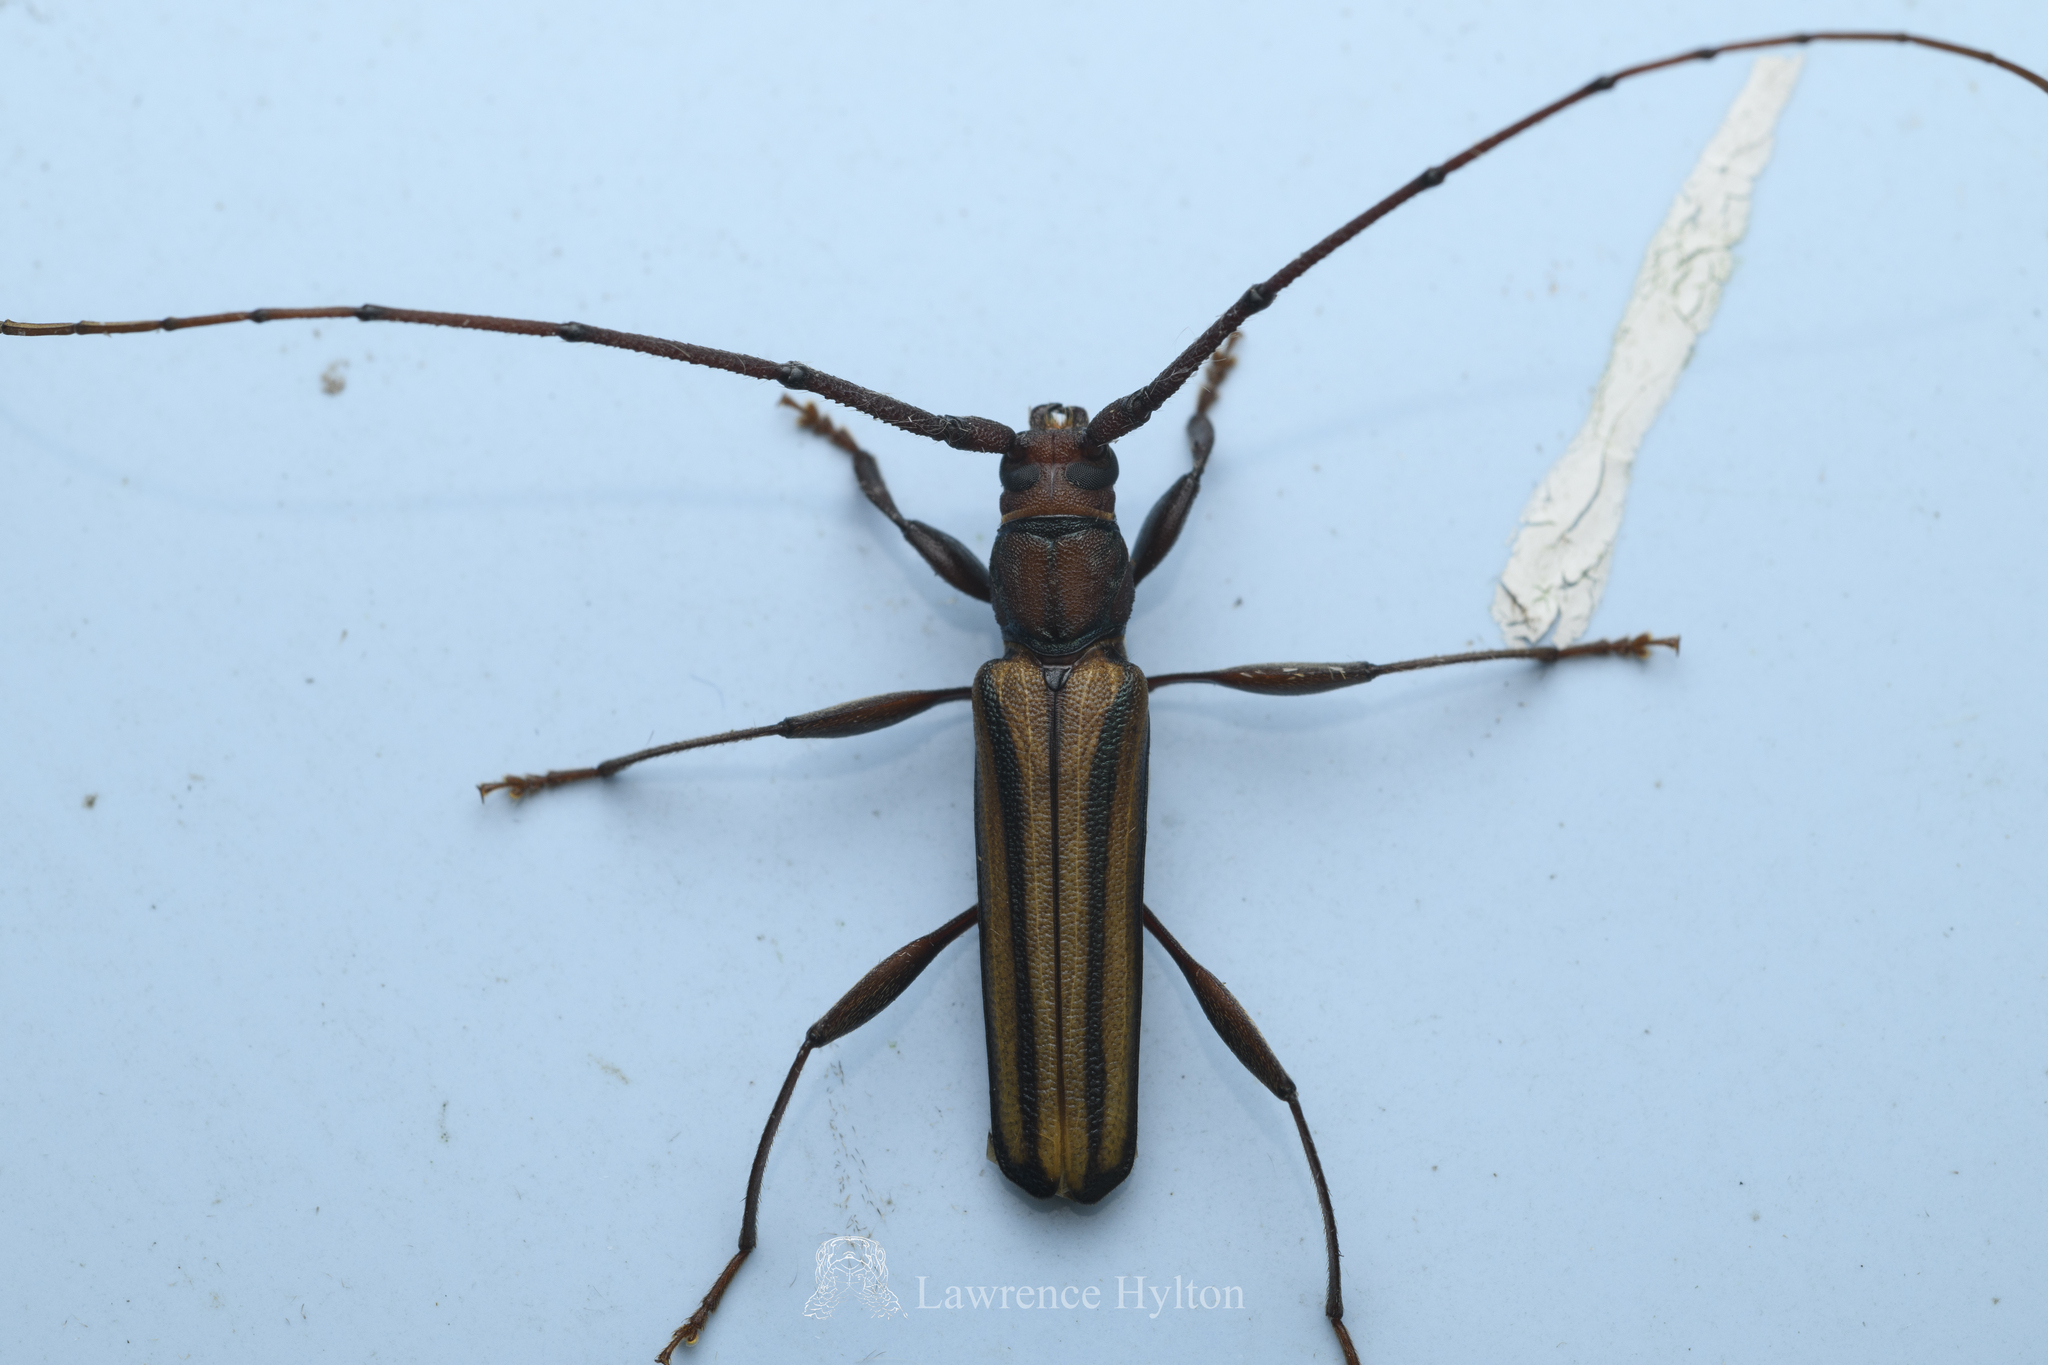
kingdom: Animalia
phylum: Arthropoda
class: Insecta
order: Coleoptera
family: Cerambycidae
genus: Xystrocera
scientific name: Xystrocera globosa
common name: Peach-tree longhorn
